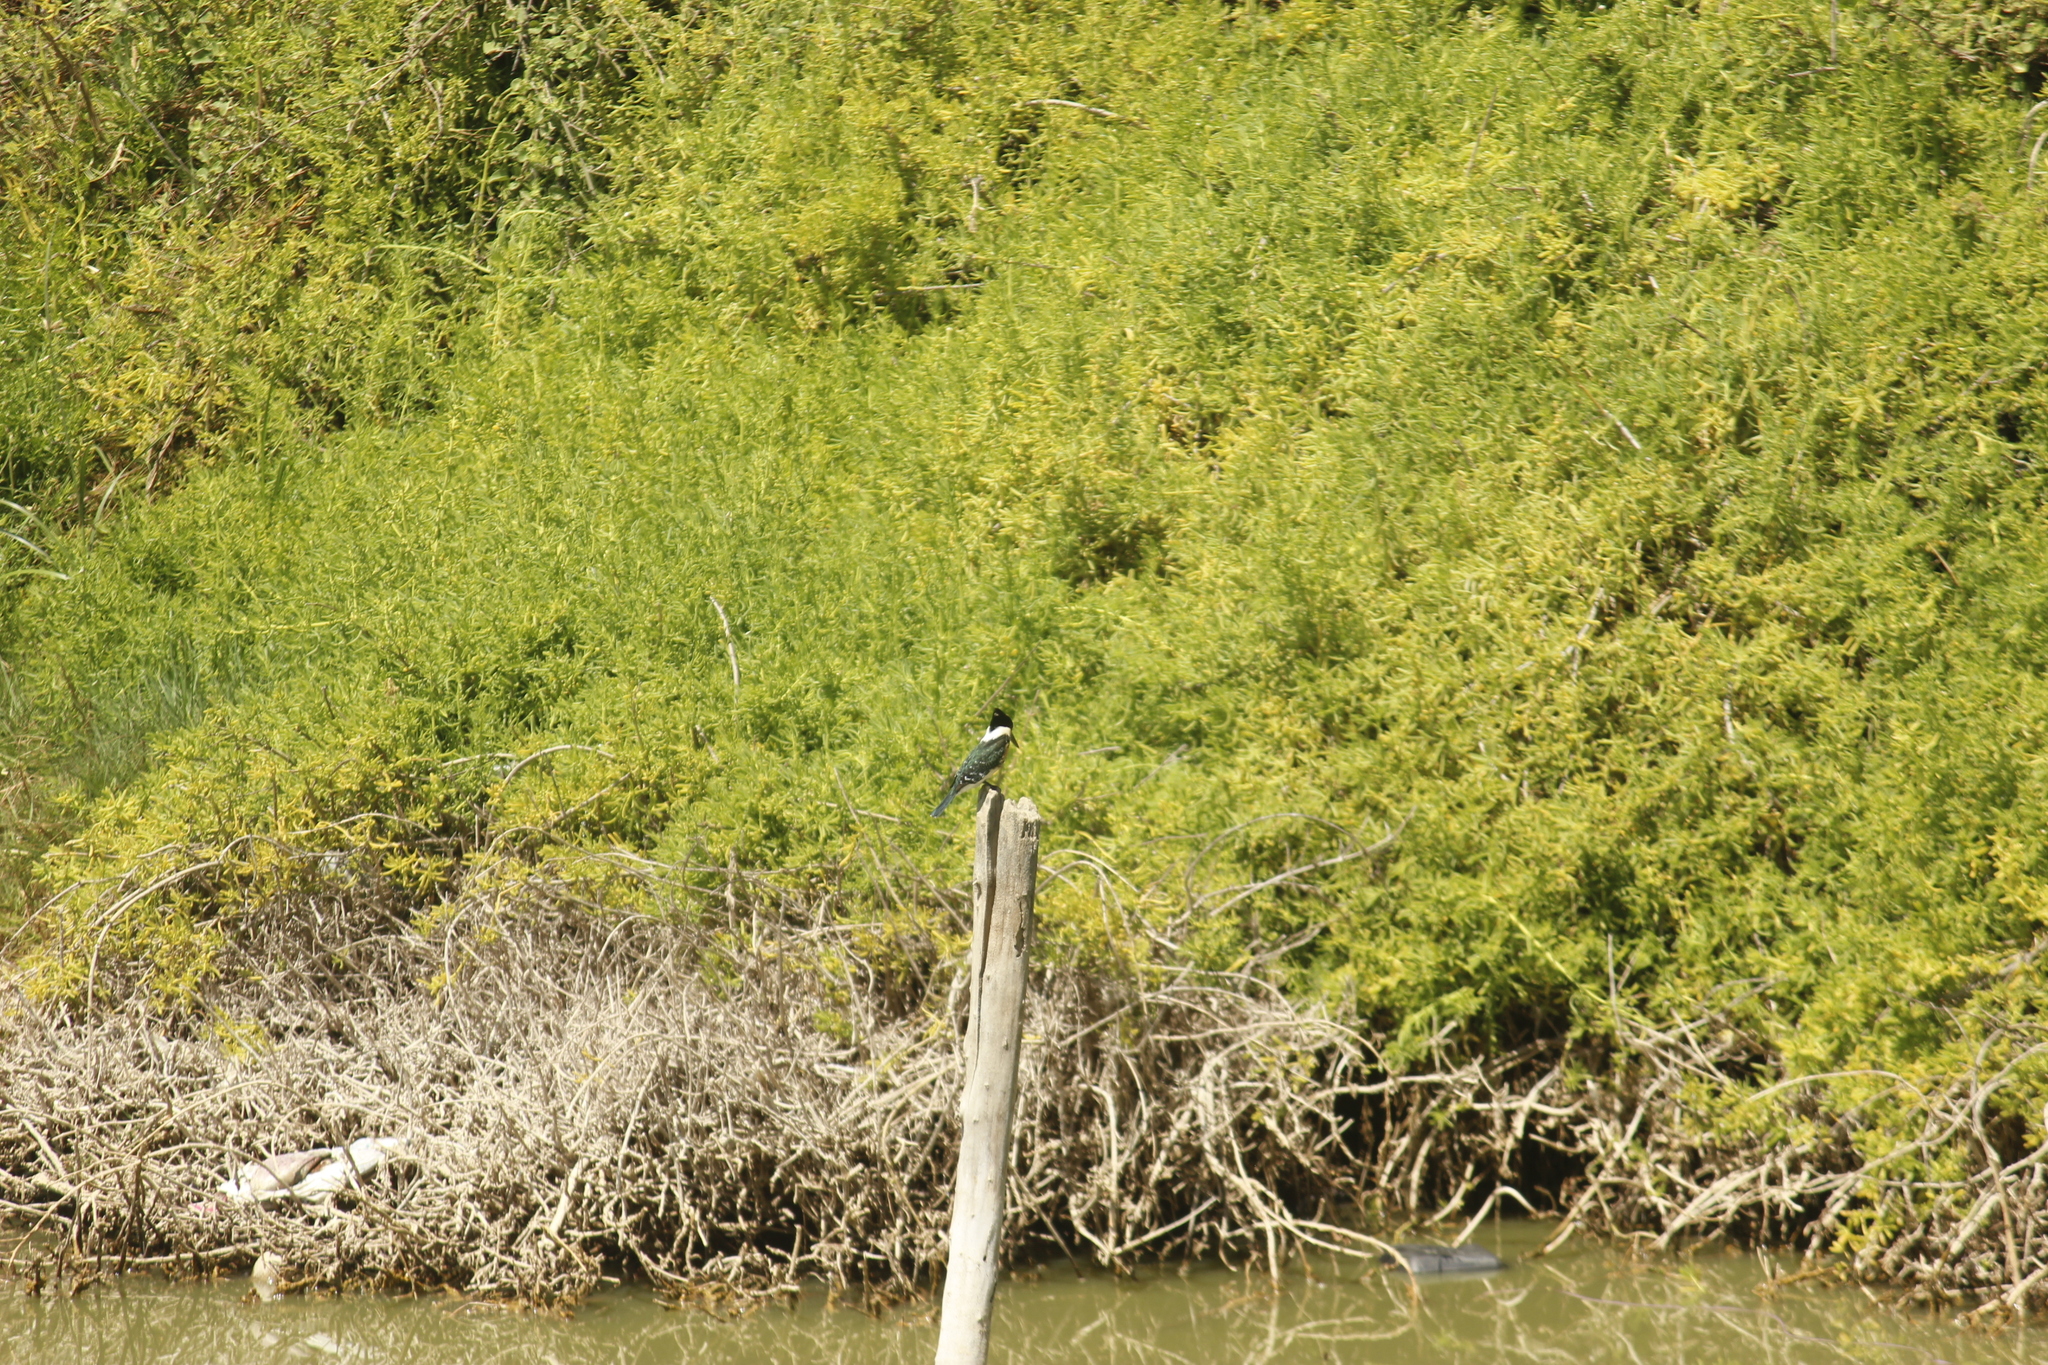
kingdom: Animalia
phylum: Chordata
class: Aves
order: Coraciiformes
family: Alcedinidae
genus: Chloroceryle
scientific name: Chloroceryle americana
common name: Green kingfisher
